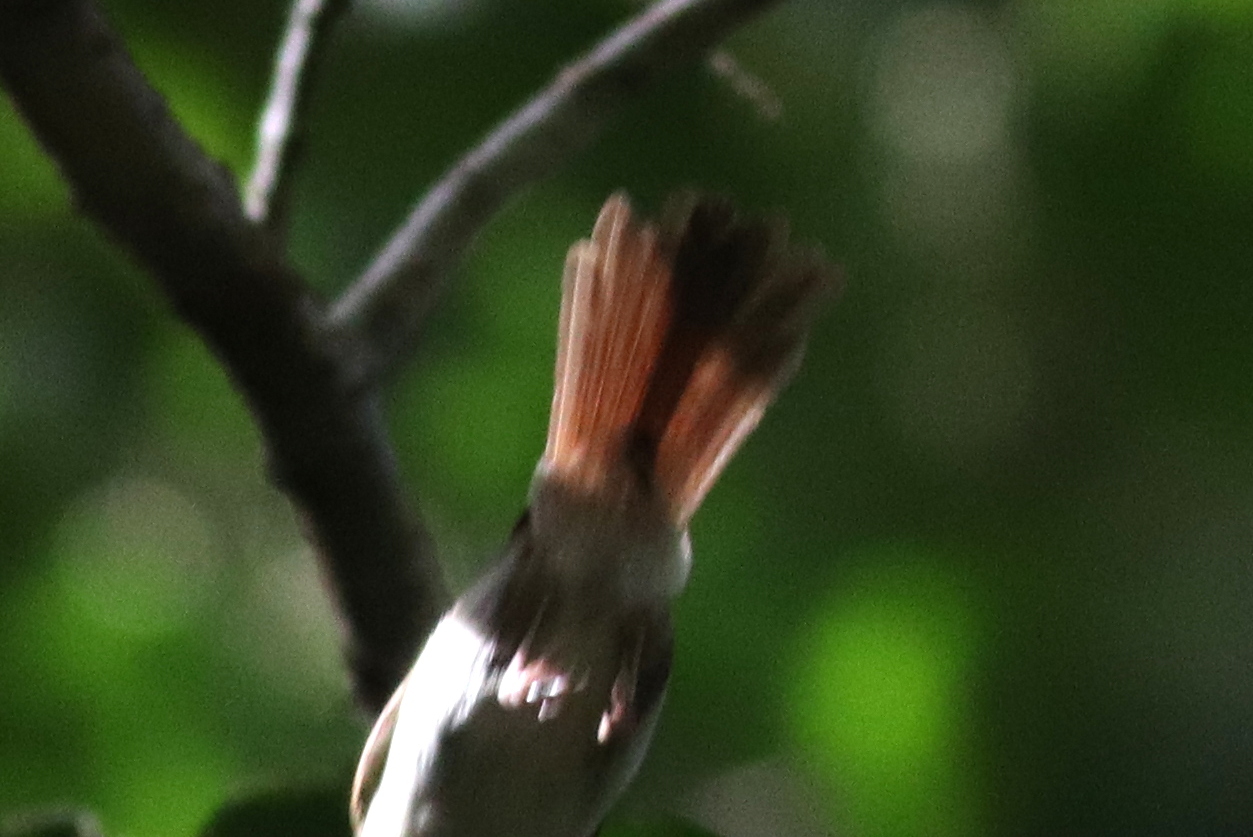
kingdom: Animalia
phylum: Chordata
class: Aves
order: Passeriformes
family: Pellorneidae
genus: Malacopteron
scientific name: Malacopteron cinereum
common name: Scaly-crowned babbler
